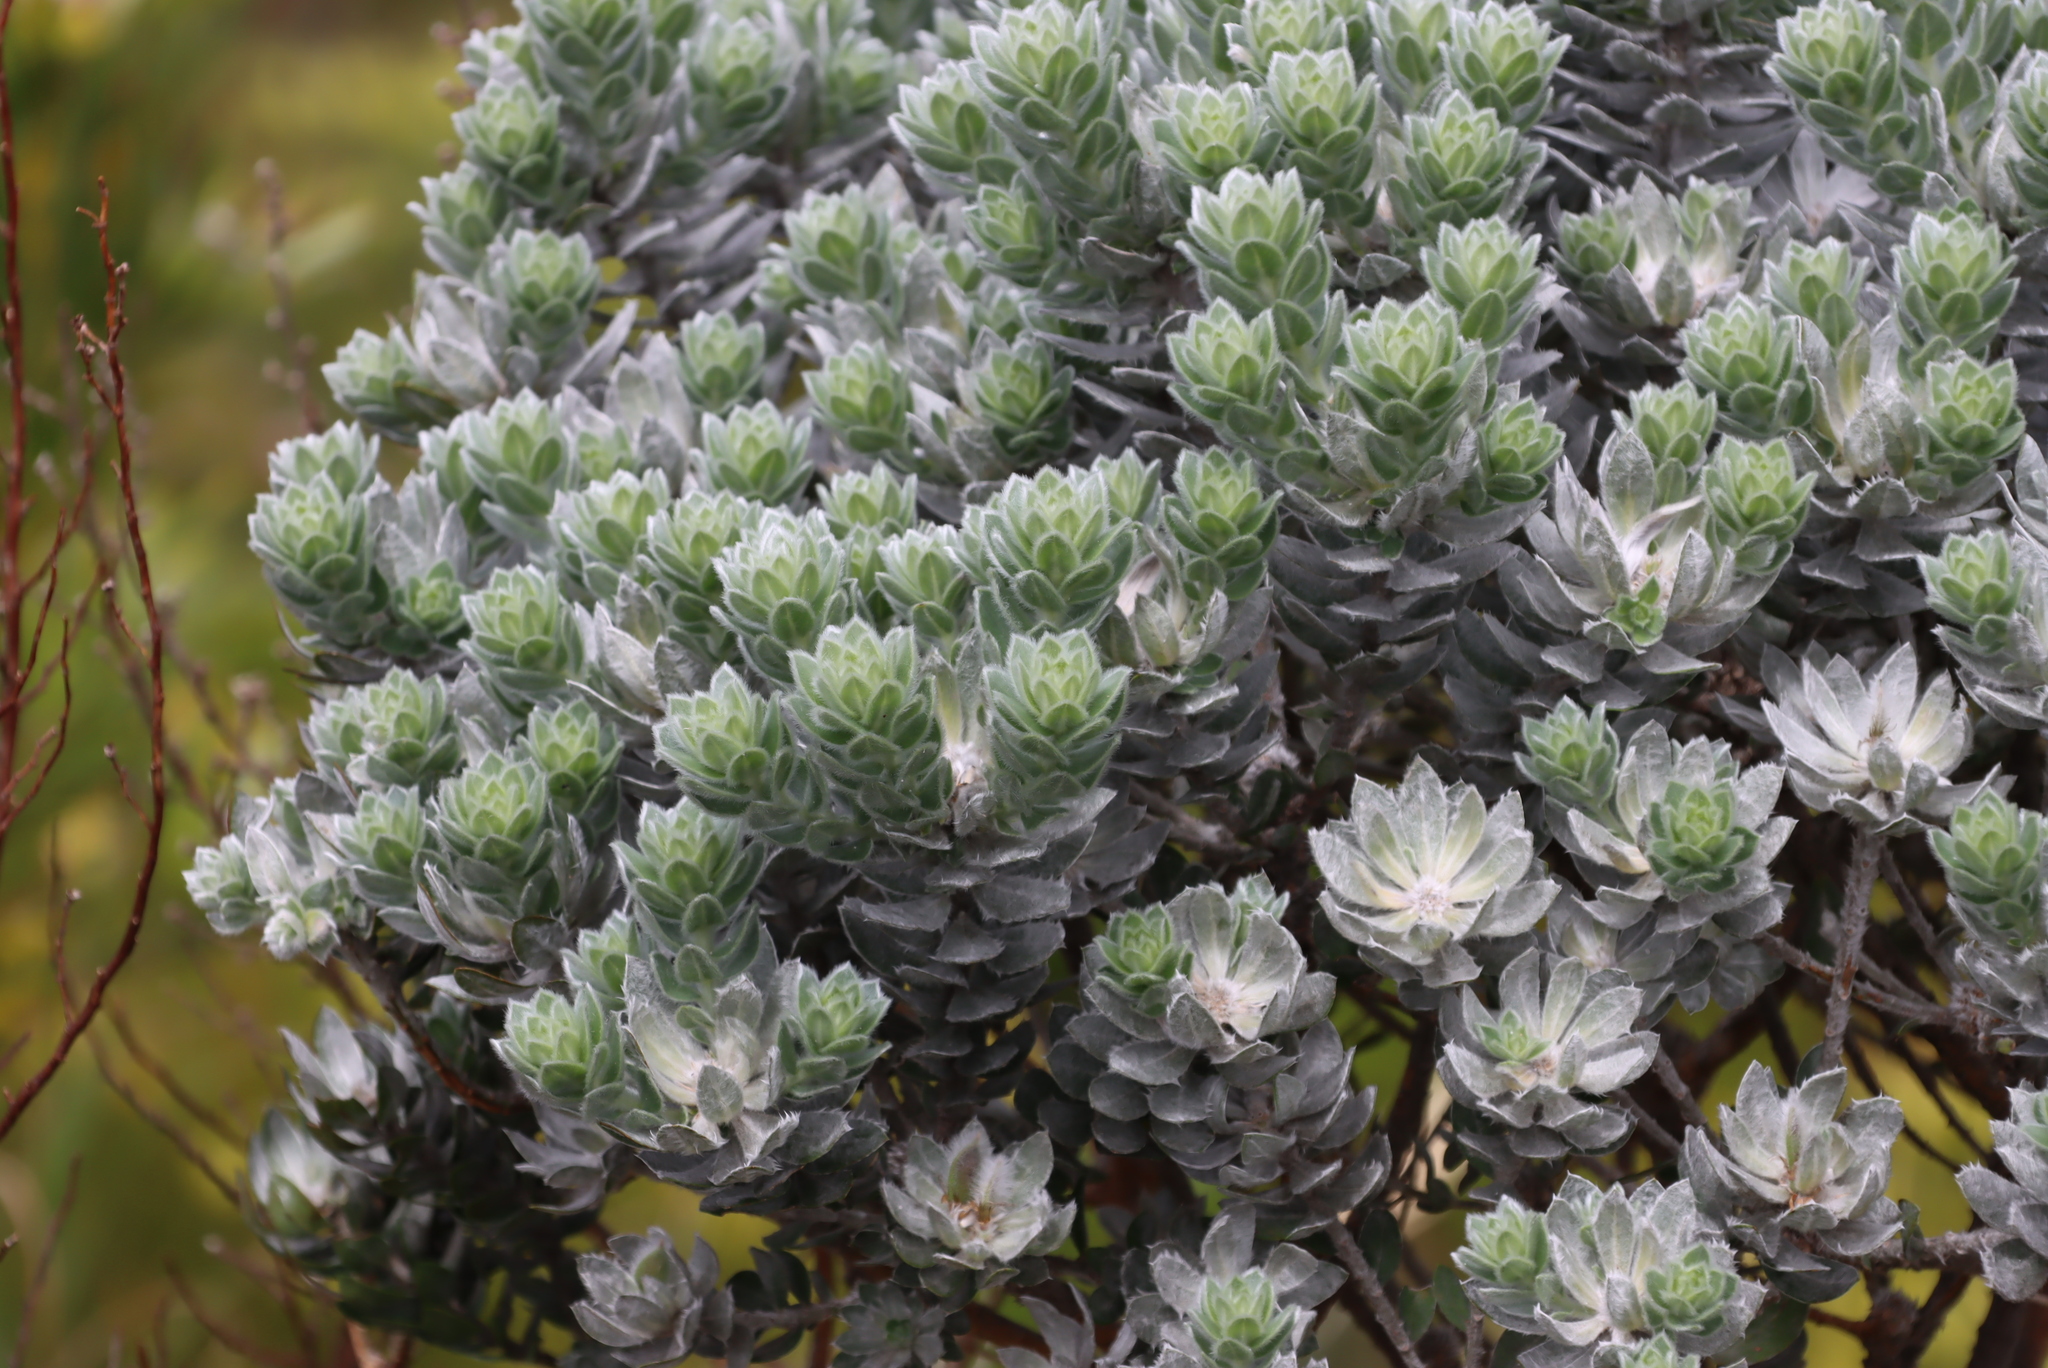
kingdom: Plantae
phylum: Tracheophyta
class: Magnoliopsida
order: Fabales
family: Fabaceae
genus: Xiphotheca
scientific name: Xiphotheca fruticosa
